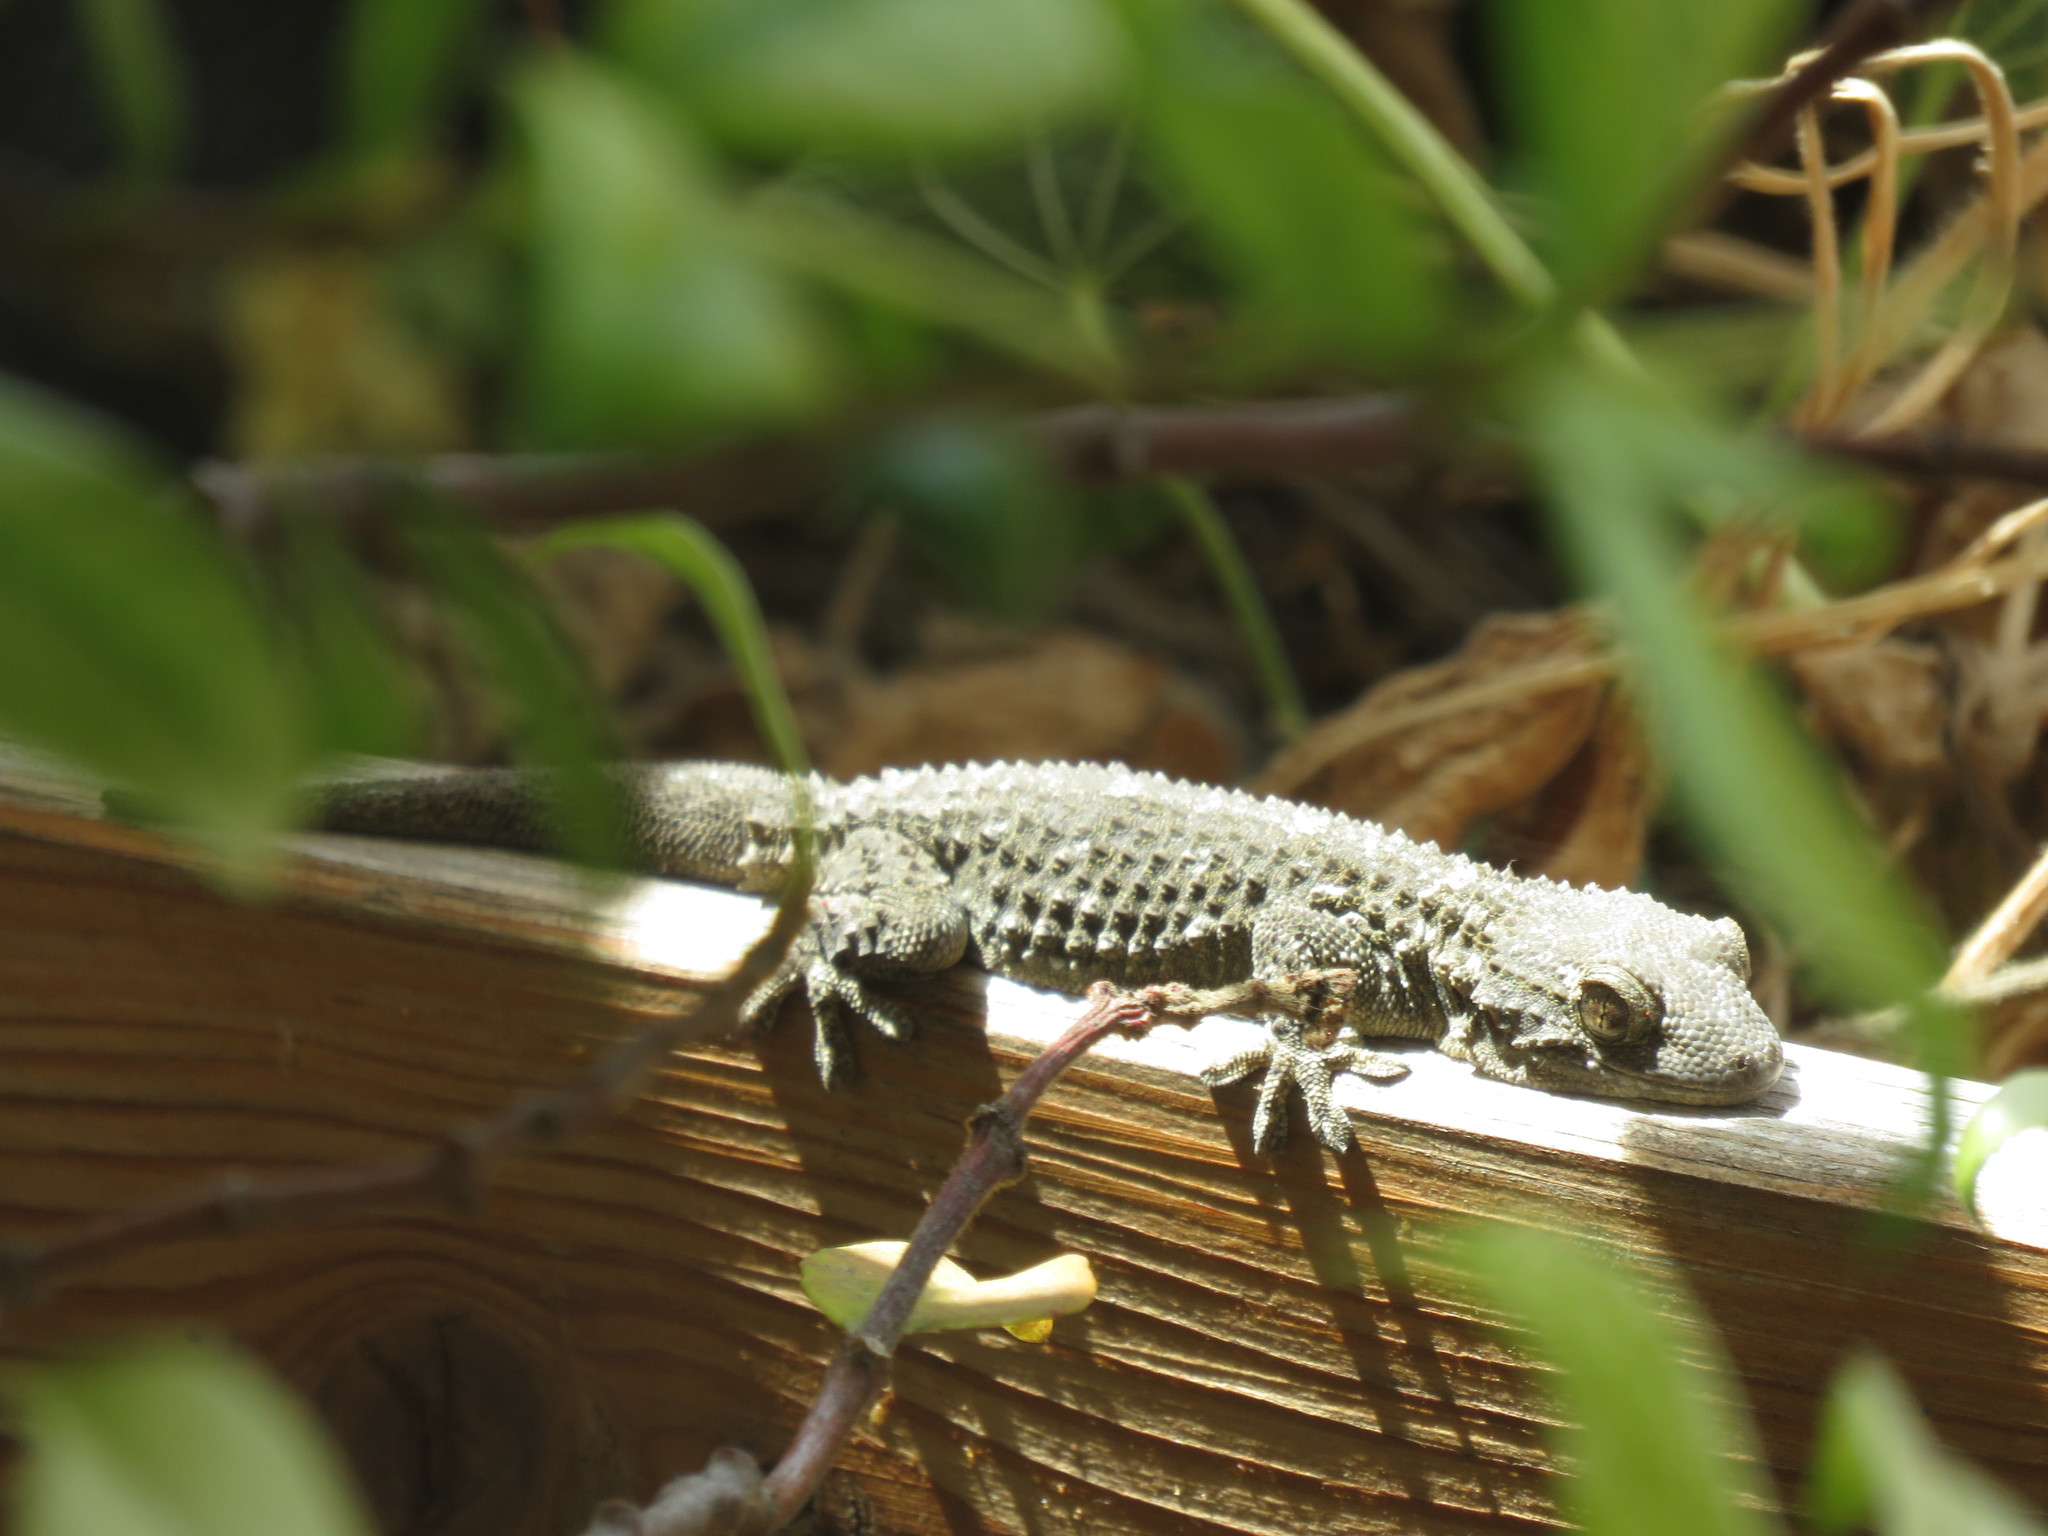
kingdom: Animalia
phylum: Chordata
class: Squamata
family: Phyllodactylidae
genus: Tarentola
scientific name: Tarentola mauritanica
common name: Moorish gecko
